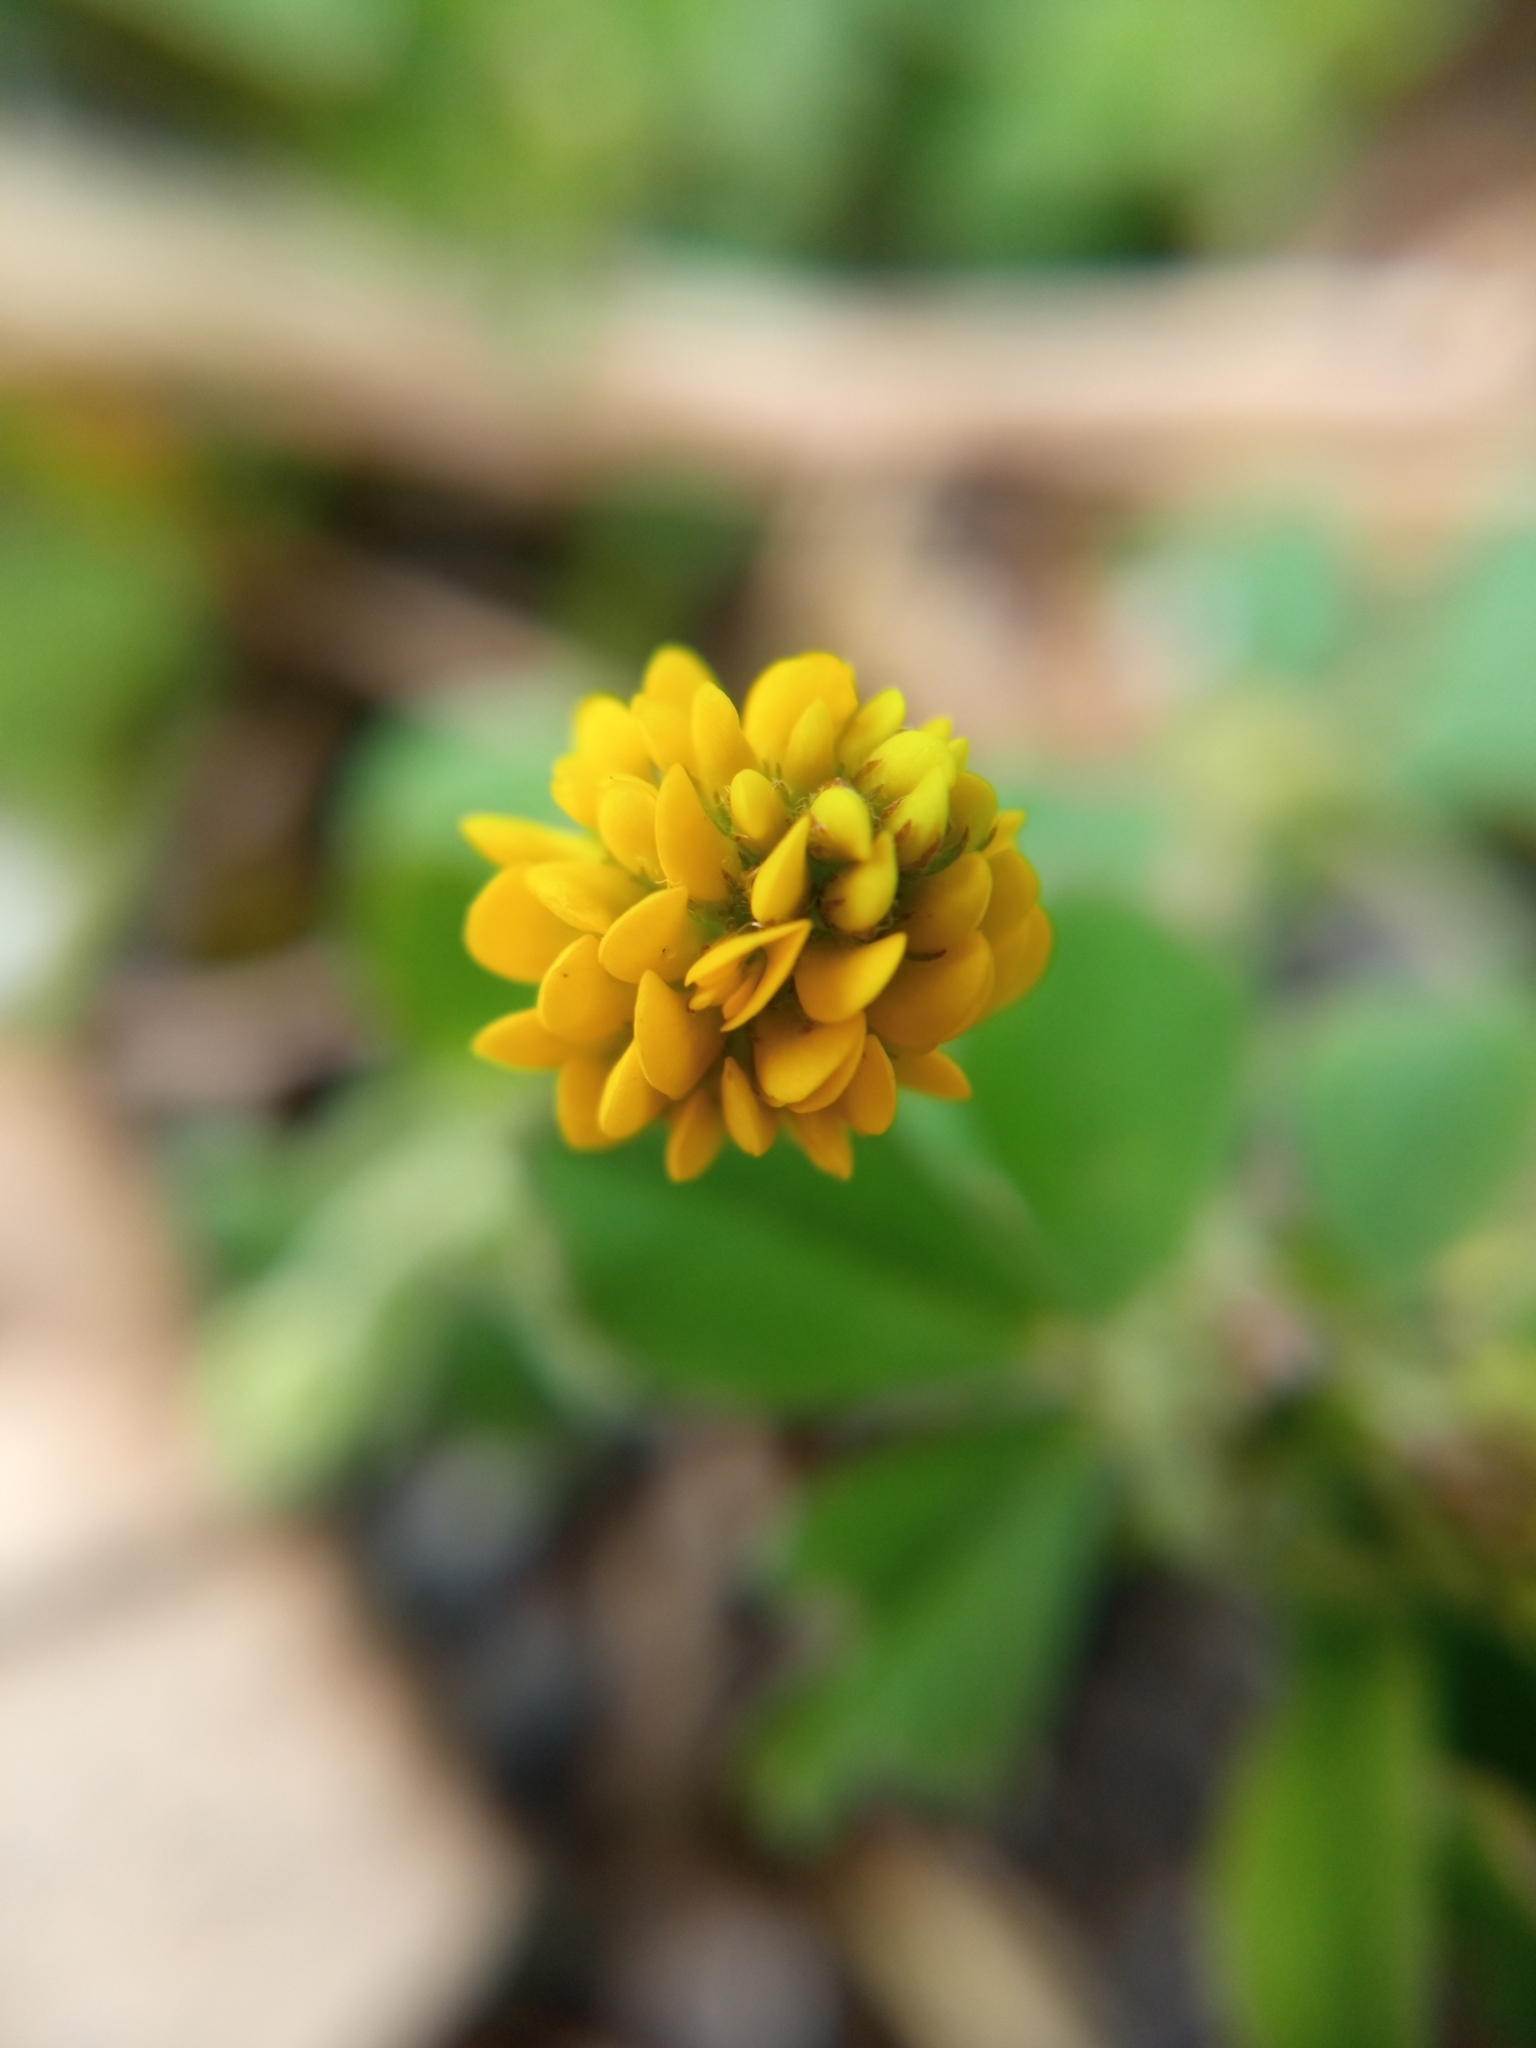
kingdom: Plantae
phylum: Tracheophyta
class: Magnoliopsida
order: Fabales
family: Fabaceae
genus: Medicago
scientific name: Medicago lupulina
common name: Black medick
